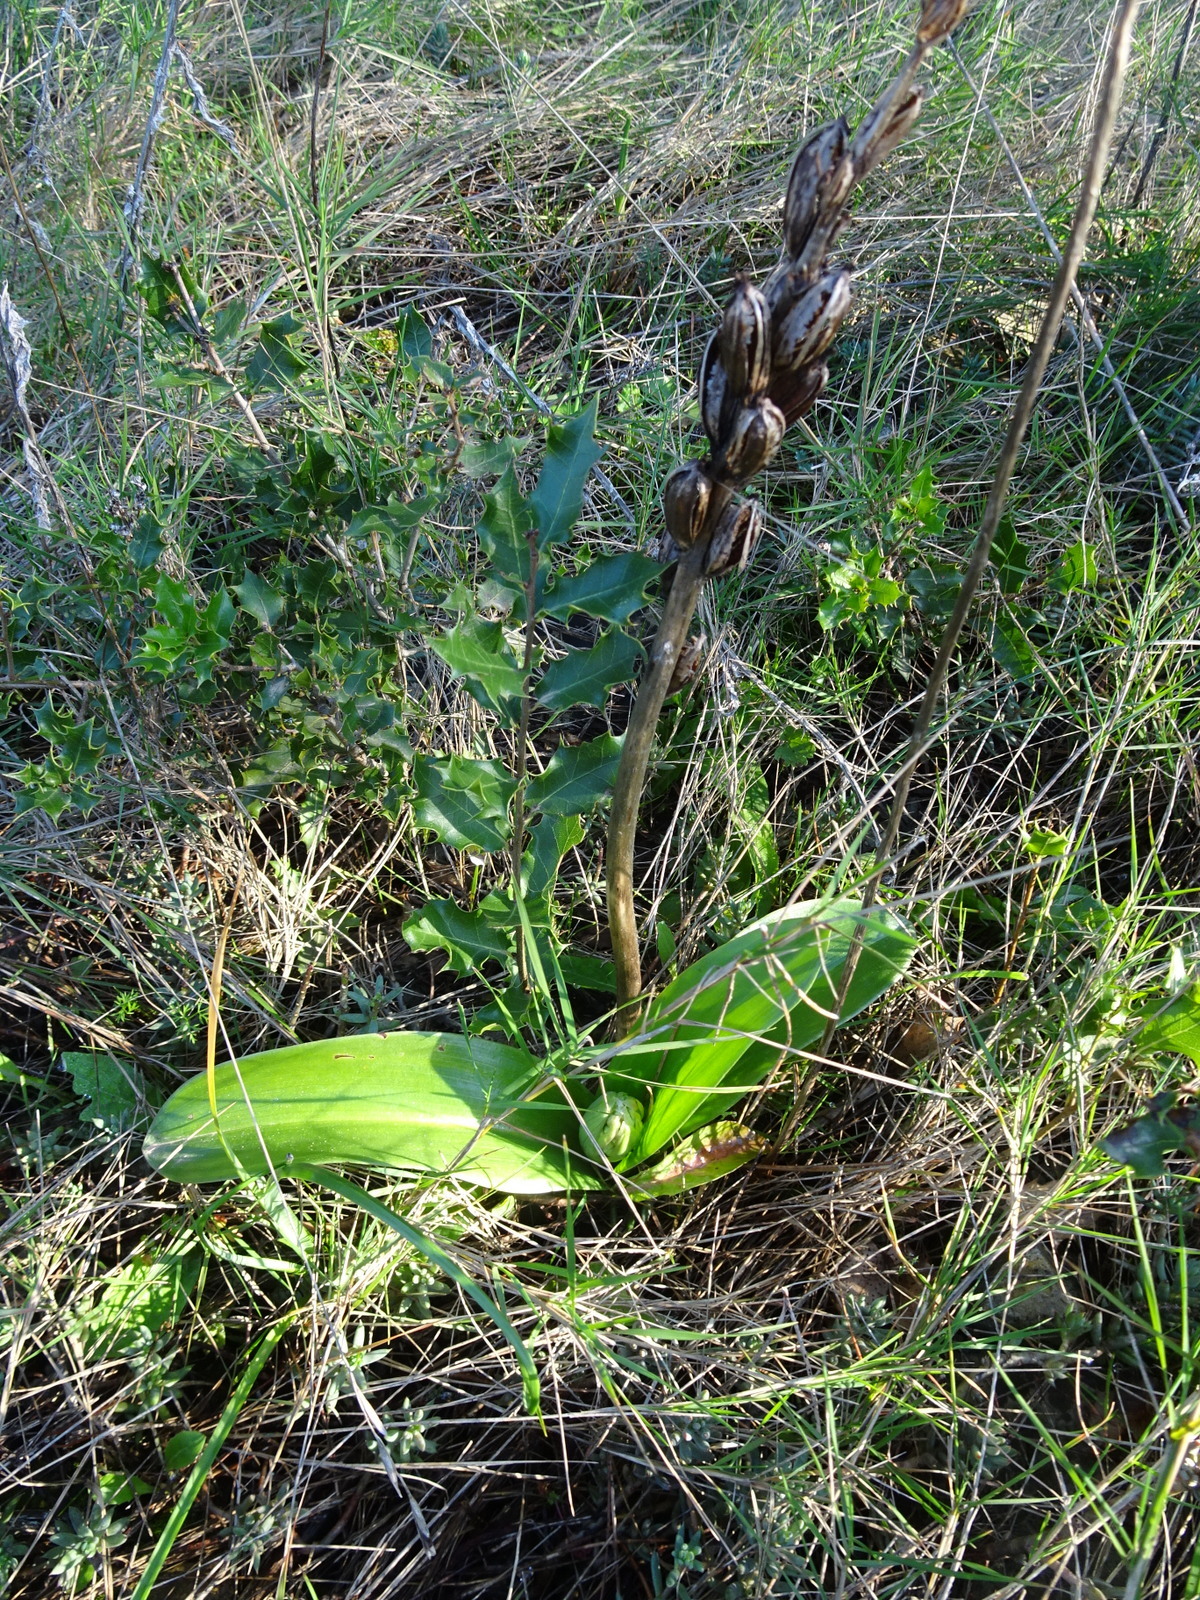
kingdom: Plantae
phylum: Tracheophyta
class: Liliopsida
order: Asparagales
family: Orchidaceae
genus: Himantoglossum
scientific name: Himantoglossum robertianum
